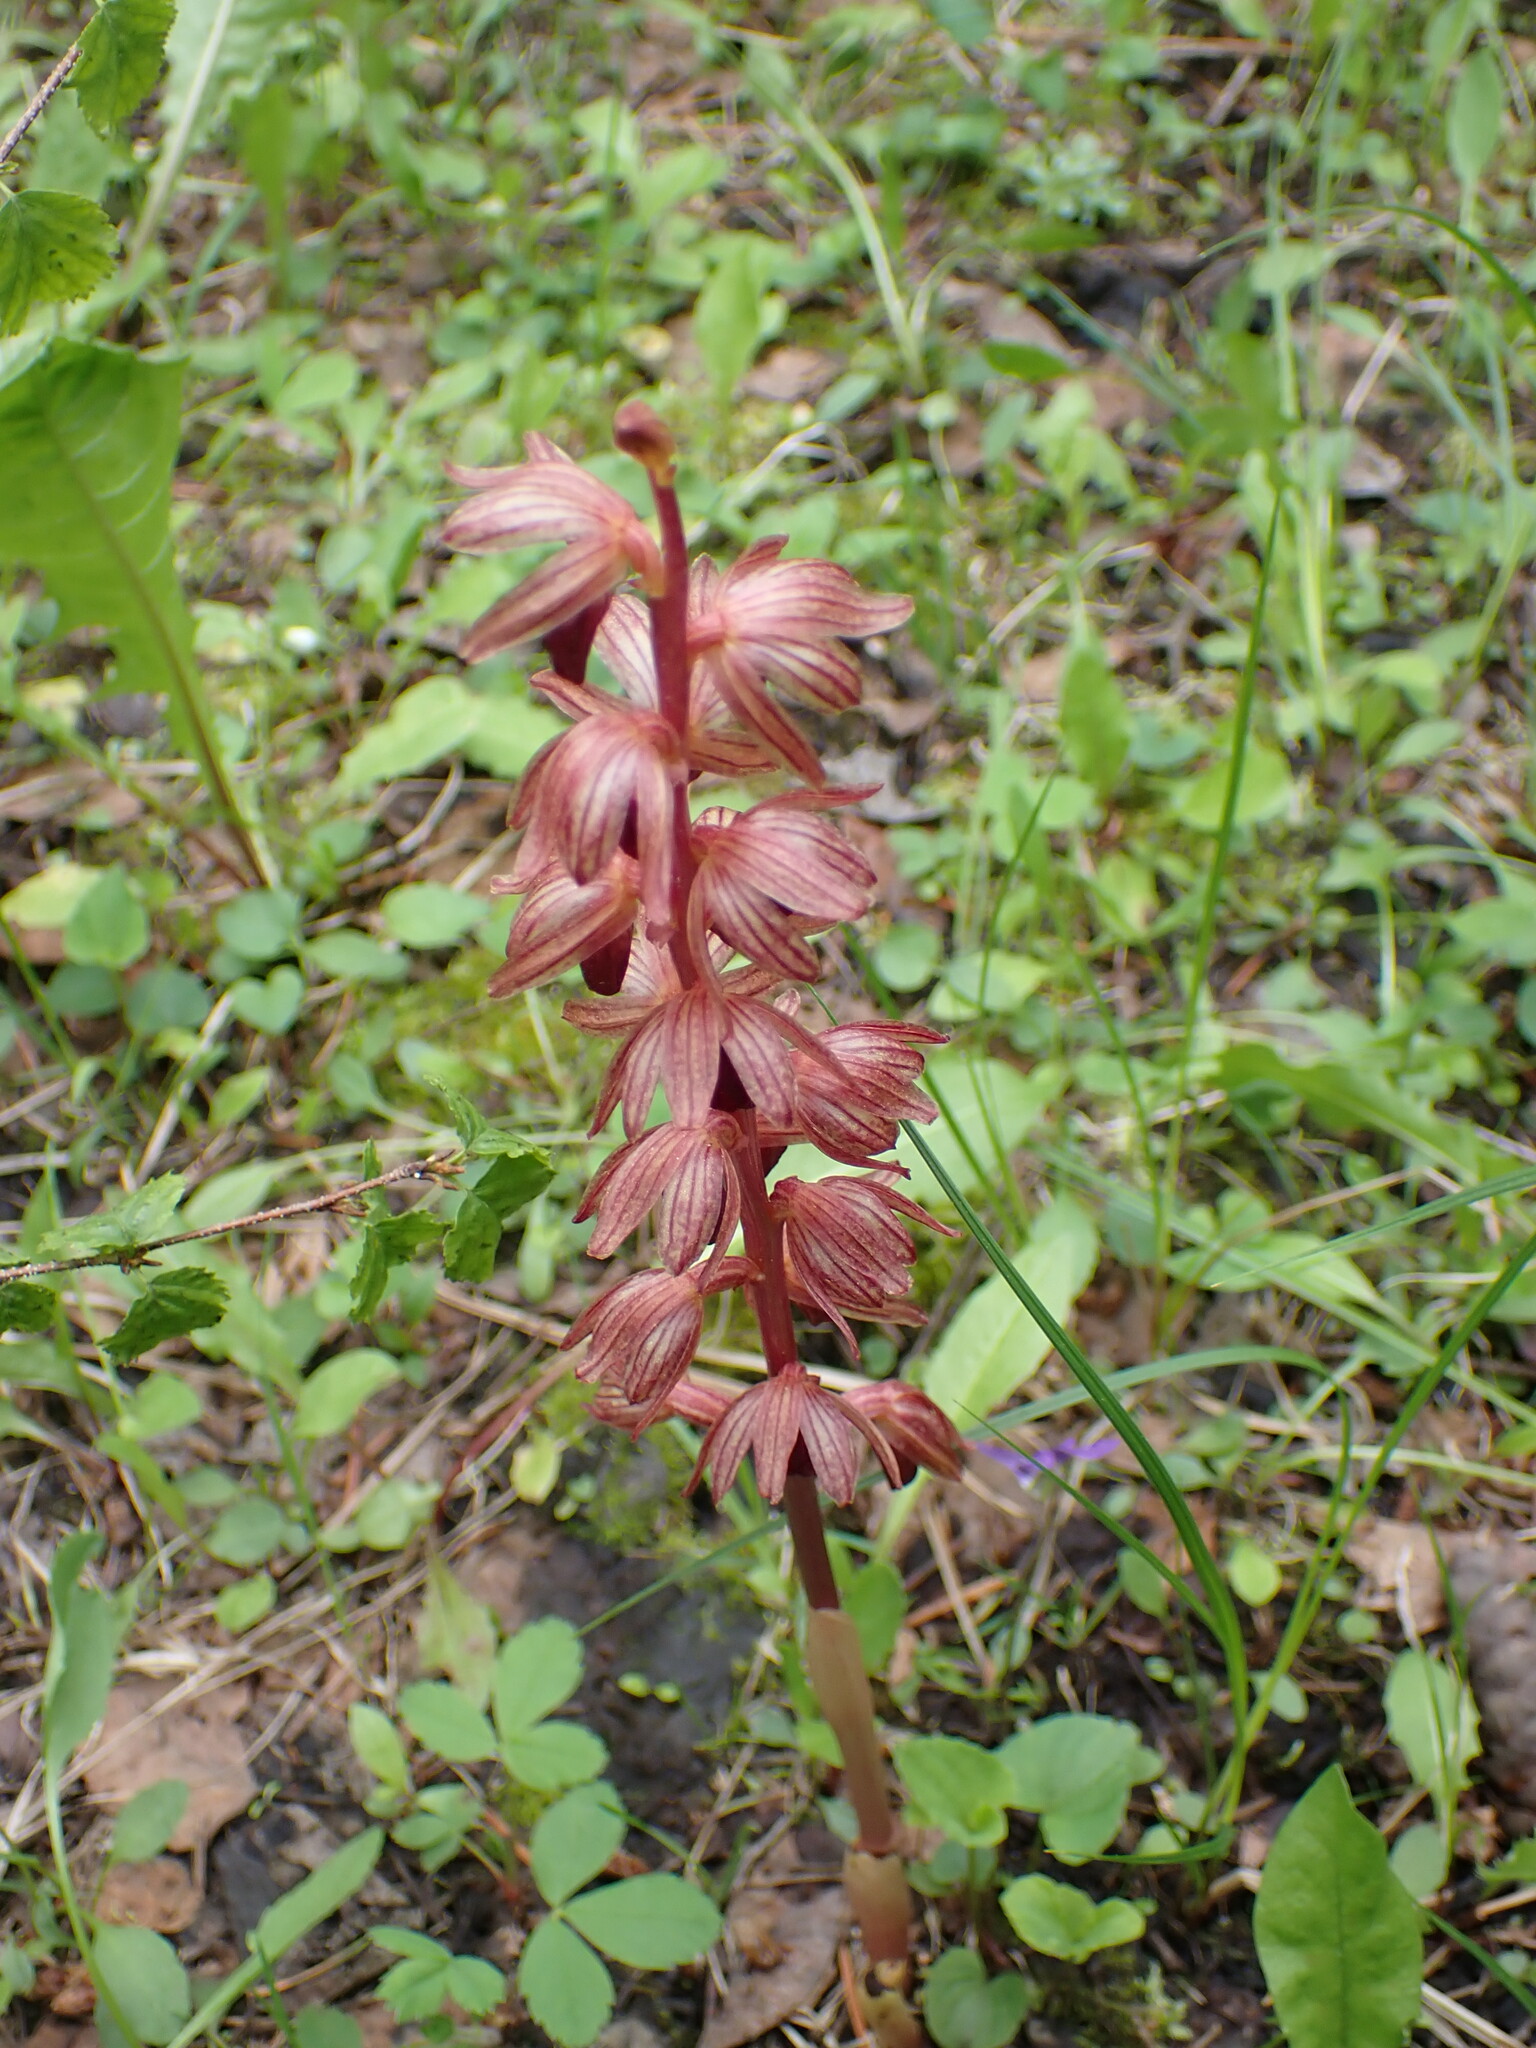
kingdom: Plantae
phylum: Tracheophyta
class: Liliopsida
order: Asparagales
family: Orchidaceae
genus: Corallorhiza
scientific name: Corallorhiza striata
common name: Hooded coralroot
